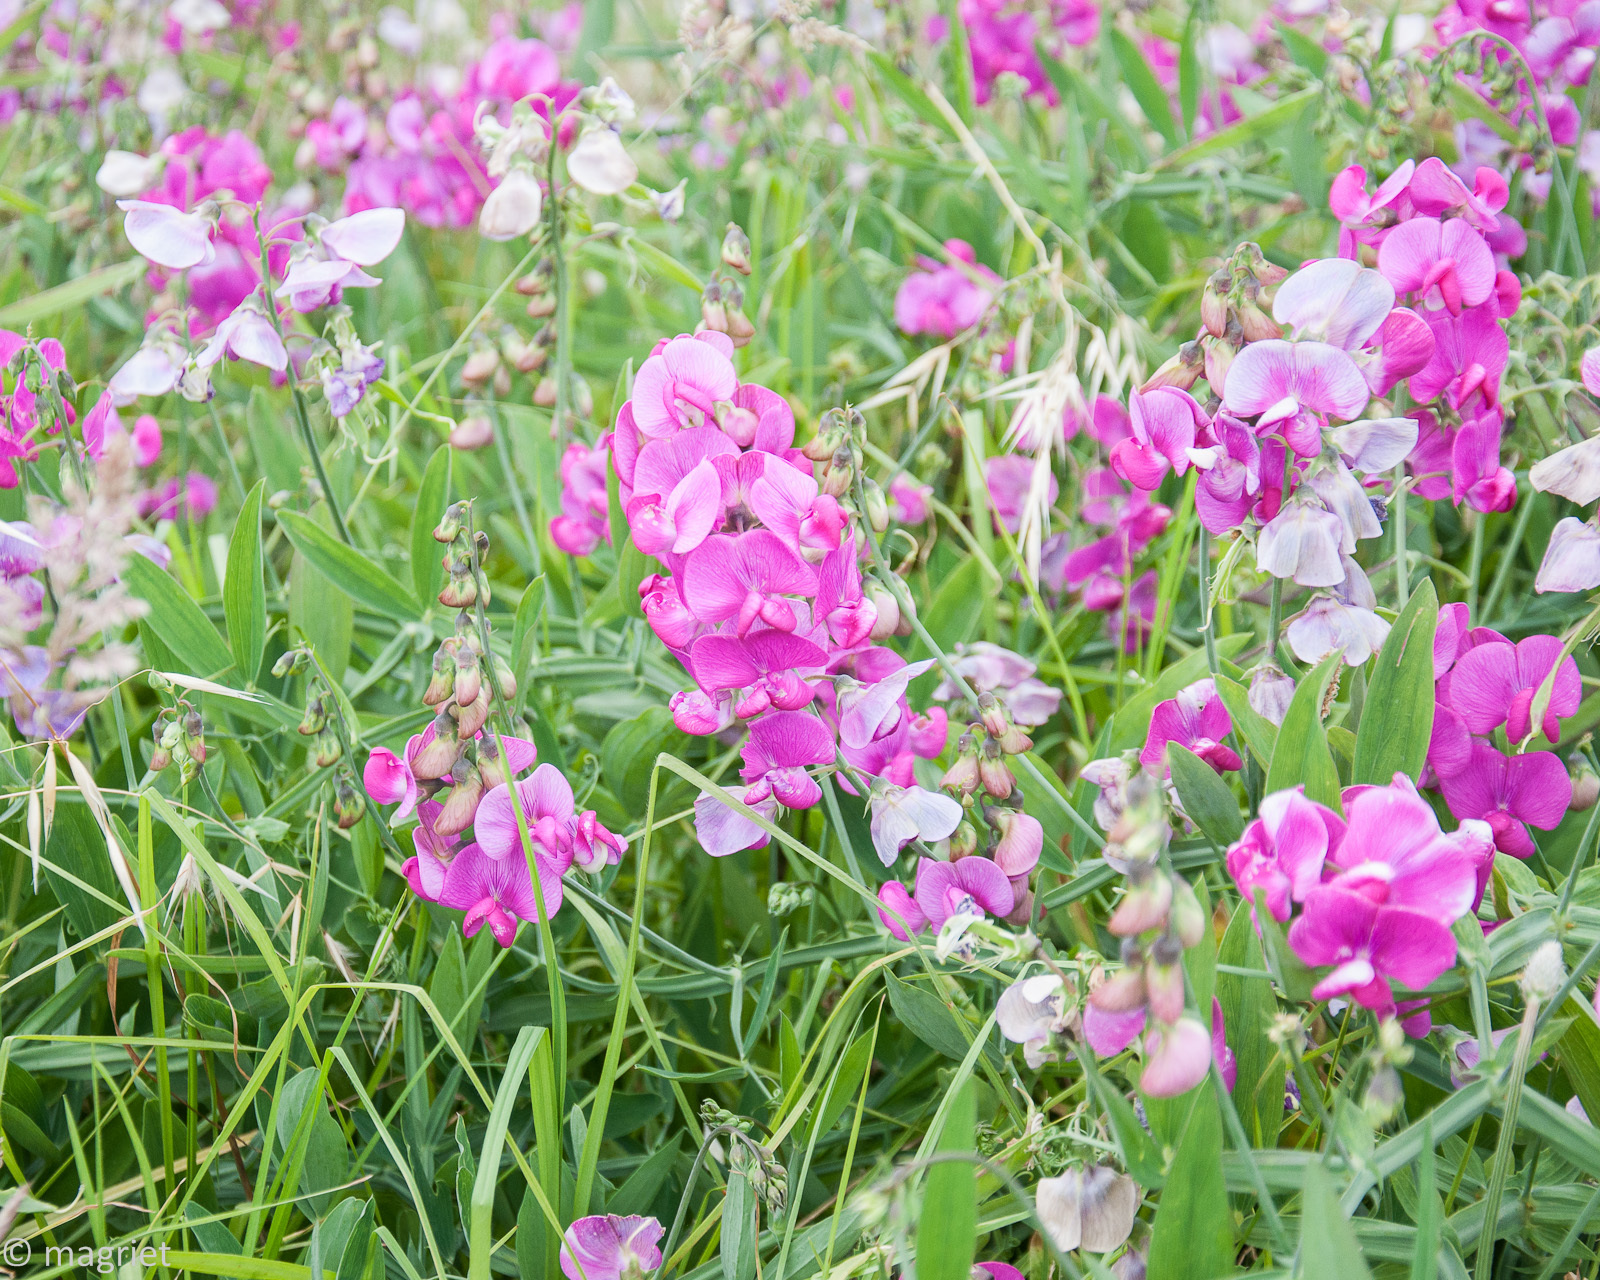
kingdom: Plantae
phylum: Tracheophyta
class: Magnoliopsida
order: Fabales
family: Fabaceae
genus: Lathyrus
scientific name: Lathyrus latifolius
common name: Perennial pea
